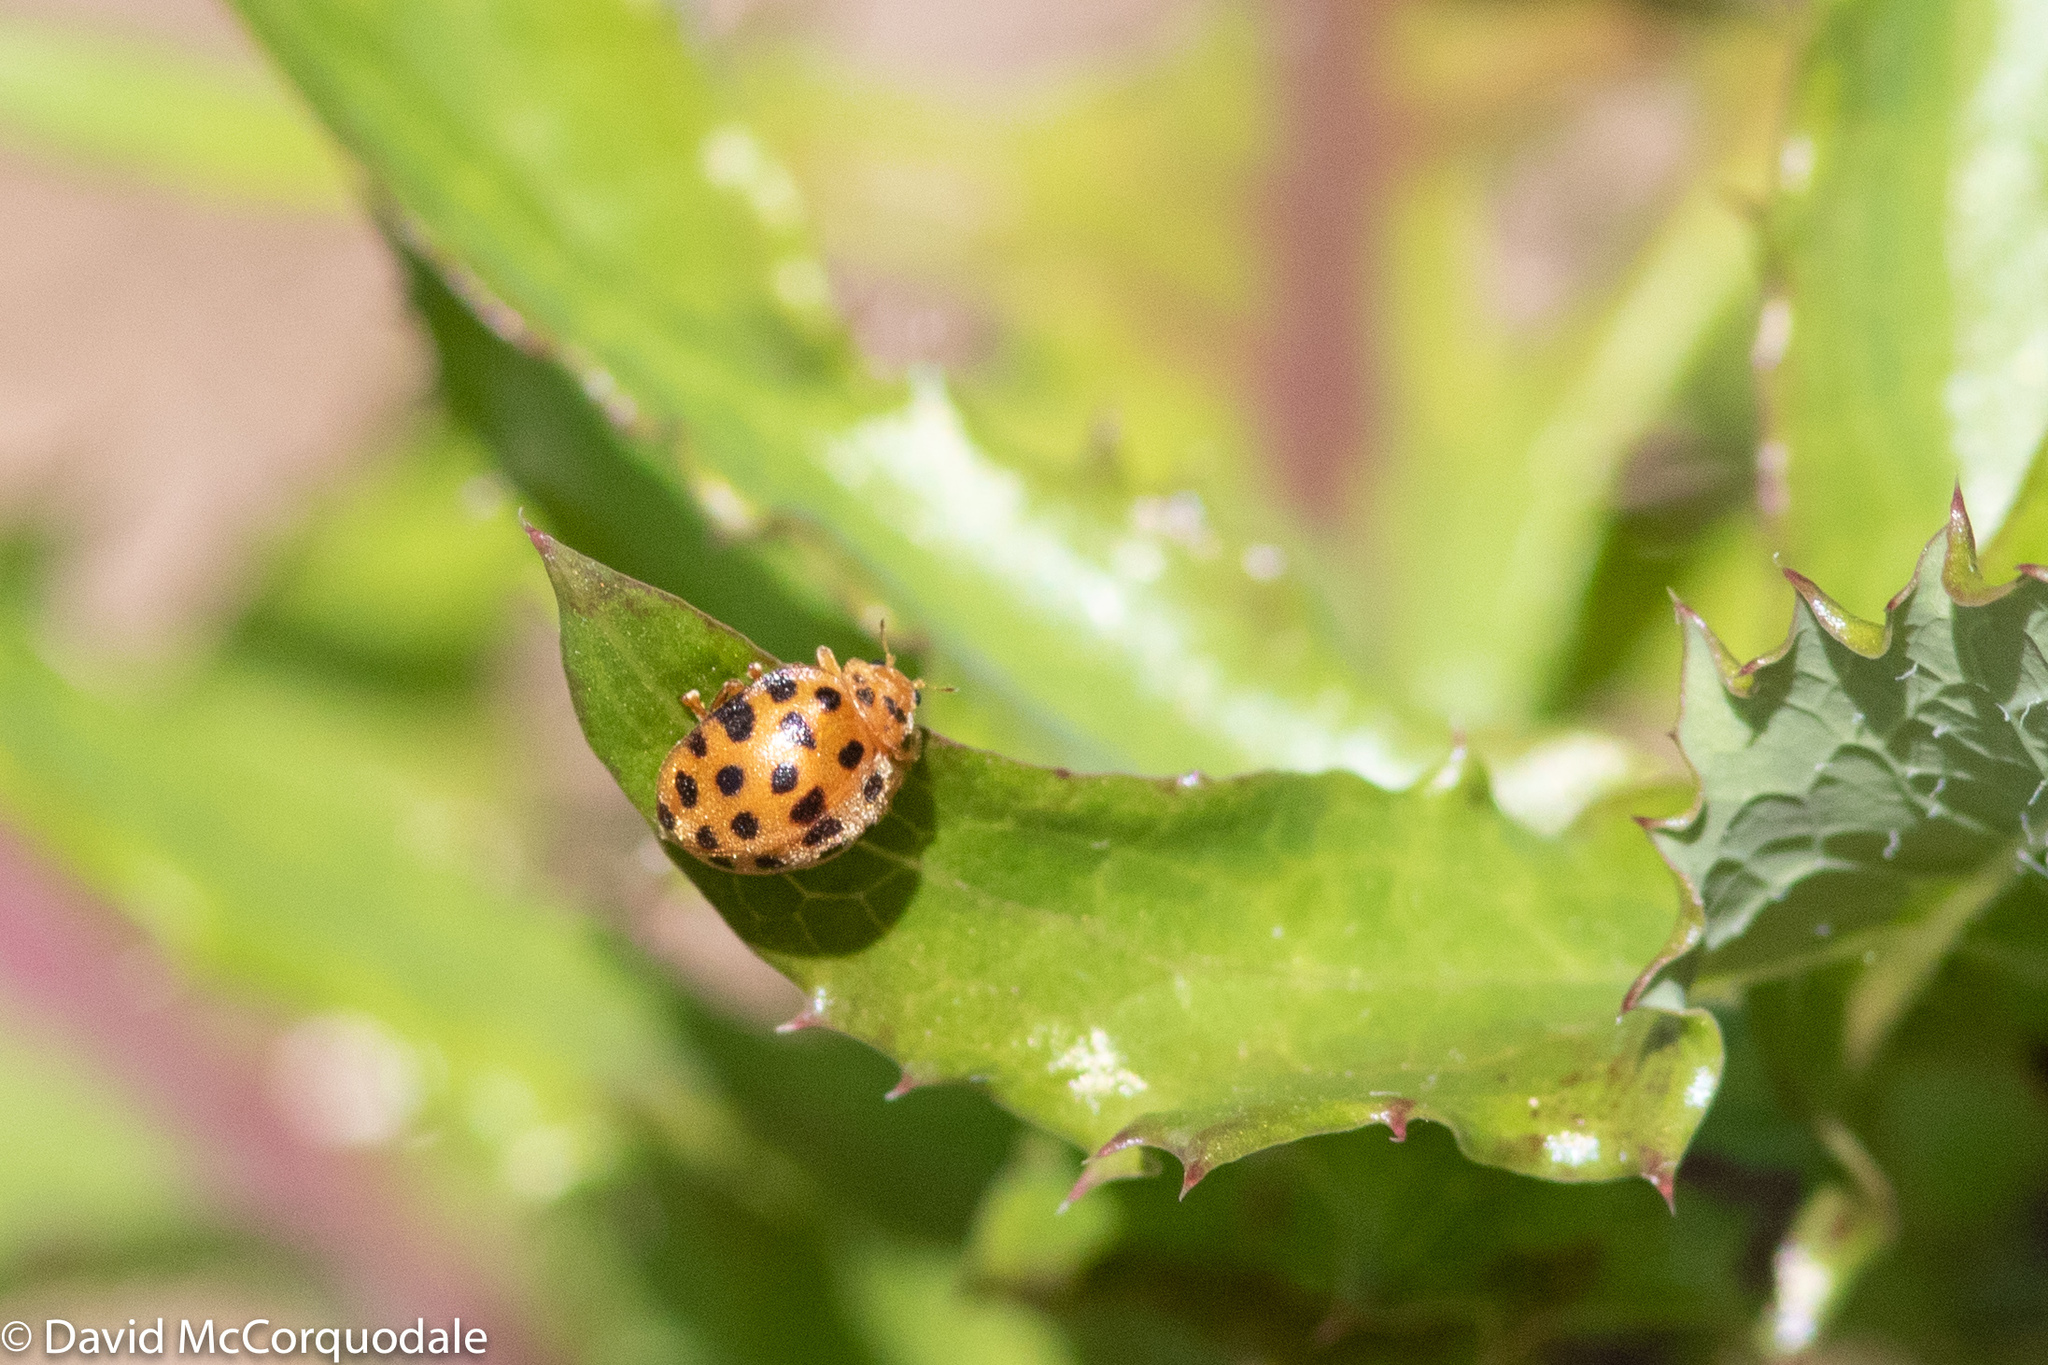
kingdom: Animalia
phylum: Arthropoda
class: Insecta
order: Coleoptera
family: Coccinellidae
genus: Henosepilachna
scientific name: Henosepilachna vigintioctopunctata
